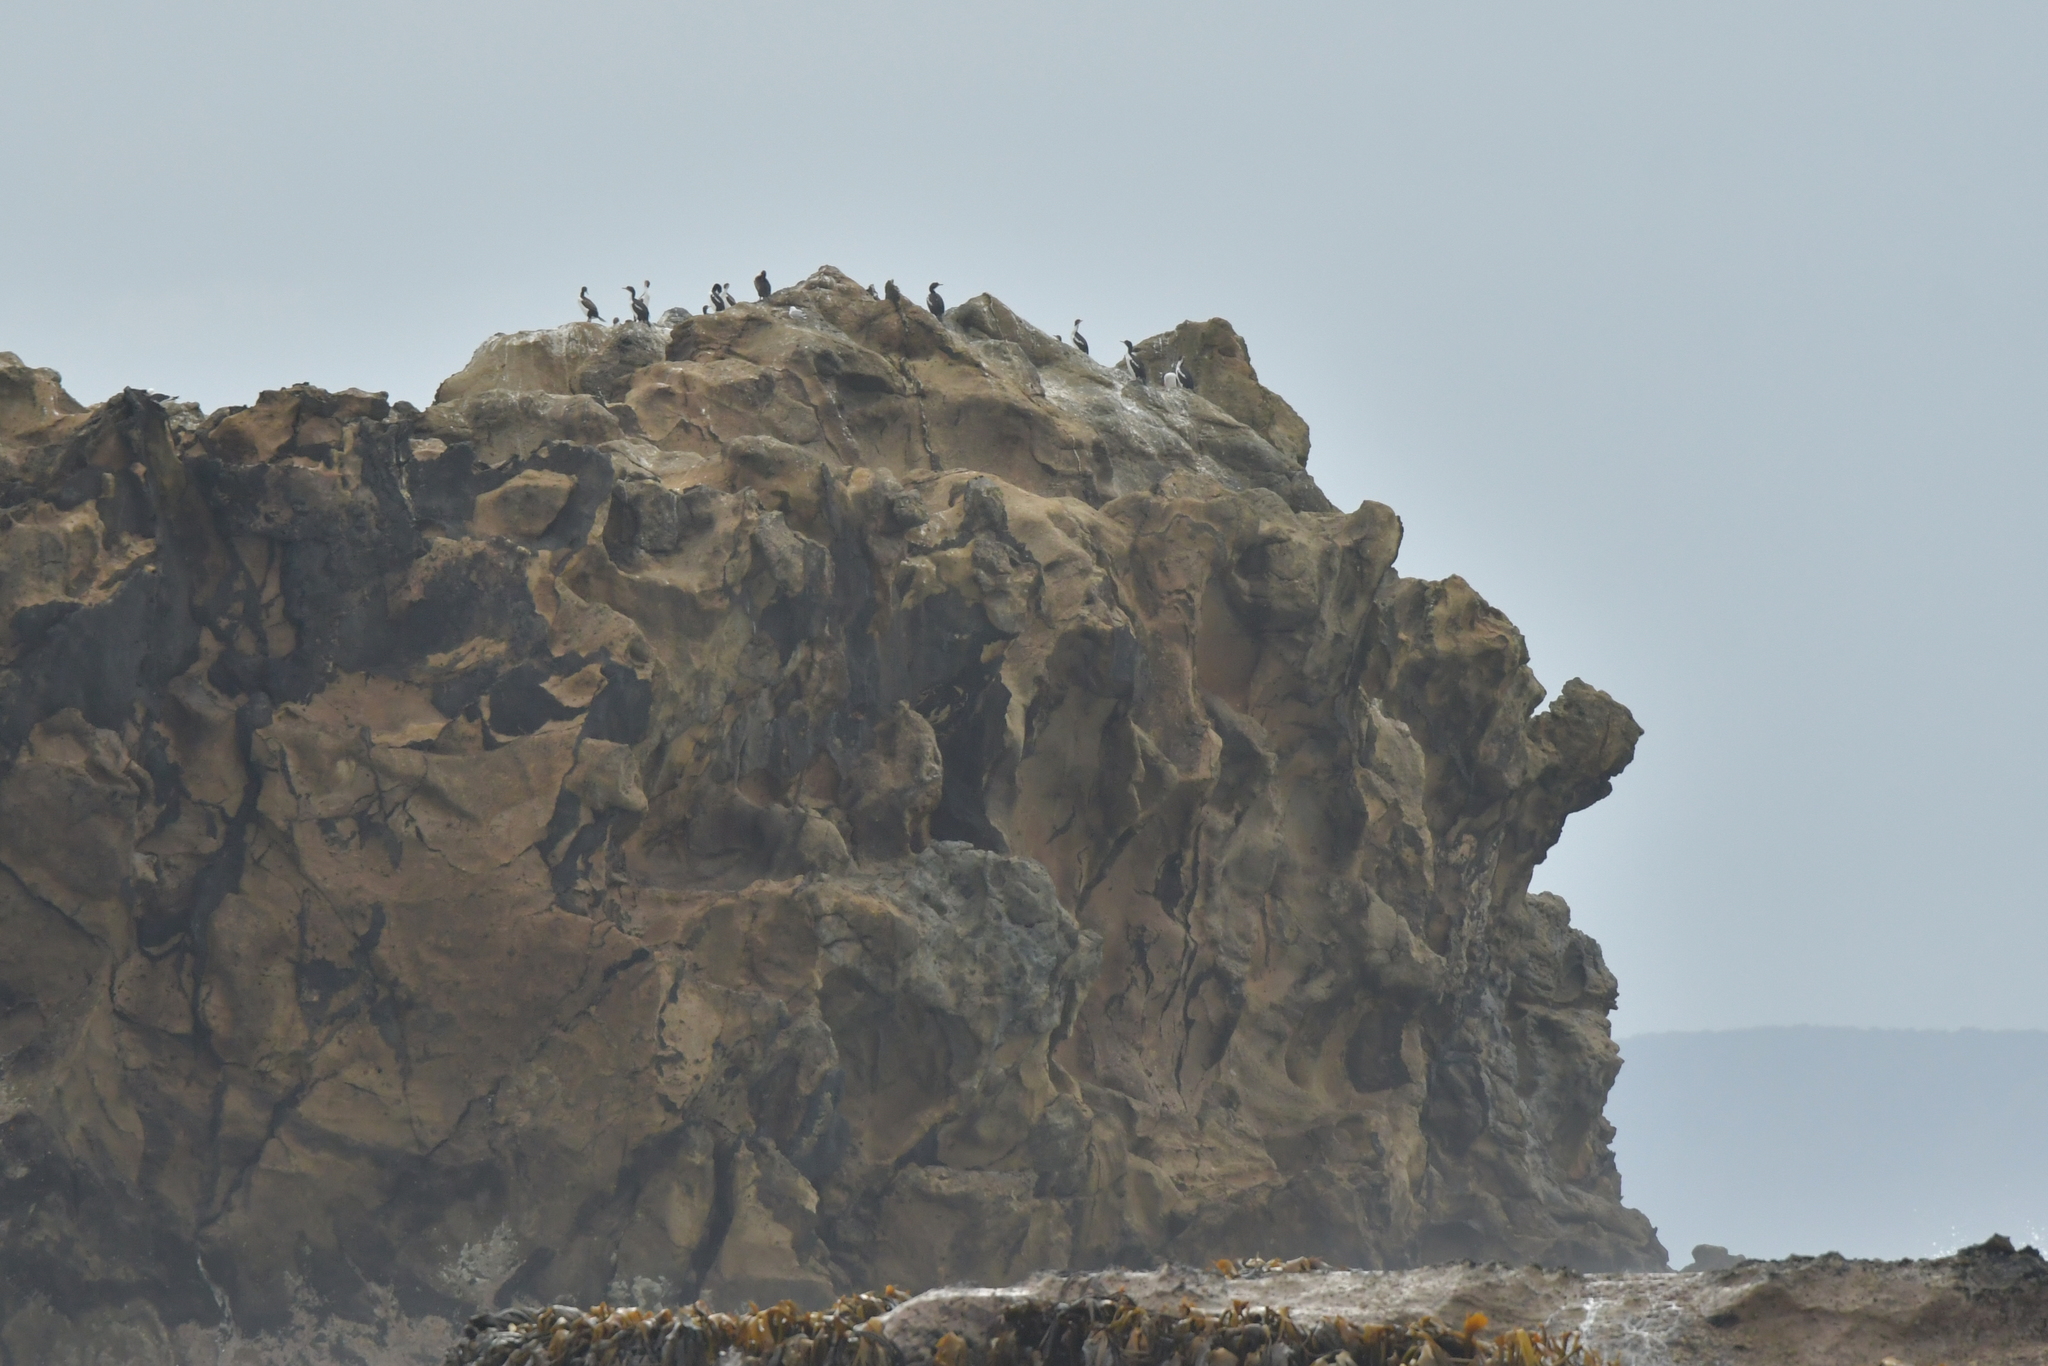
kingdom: Animalia
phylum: Chordata
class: Aves
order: Suliformes
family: Phalacrocoracidae
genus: Leucocarbo
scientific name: Leucocarbo onslowi
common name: Chatham shag
